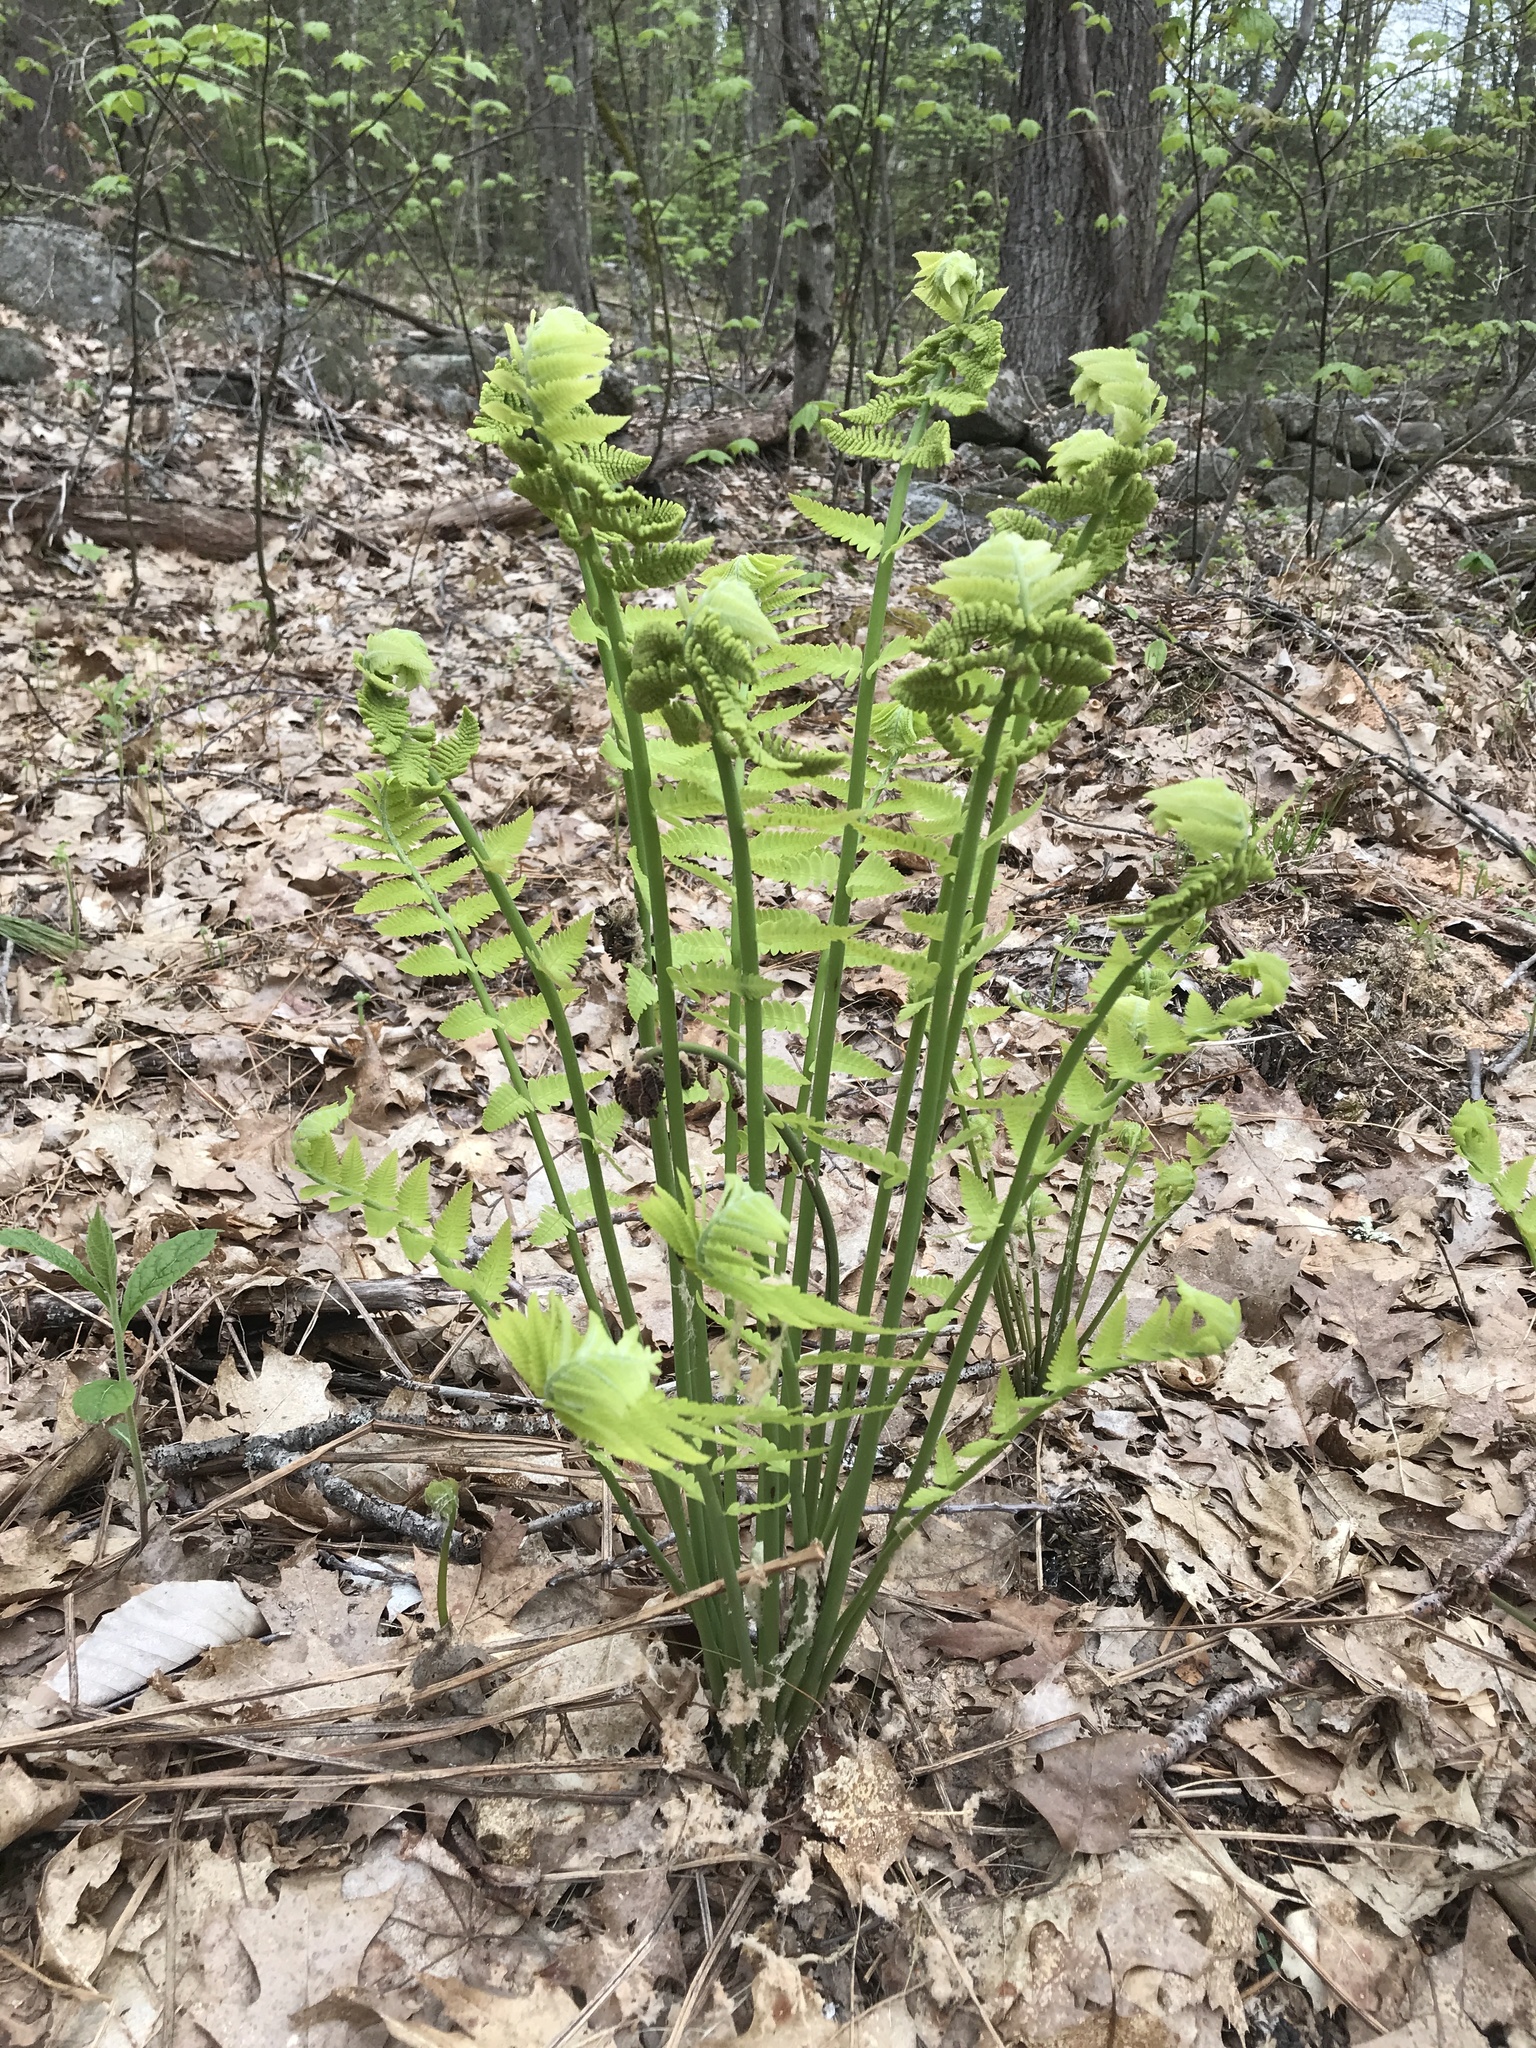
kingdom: Plantae
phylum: Tracheophyta
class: Polypodiopsida
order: Osmundales
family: Osmundaceae
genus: Claytosmunda
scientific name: Claytosmunda claytoniana
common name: Clayton's fern
